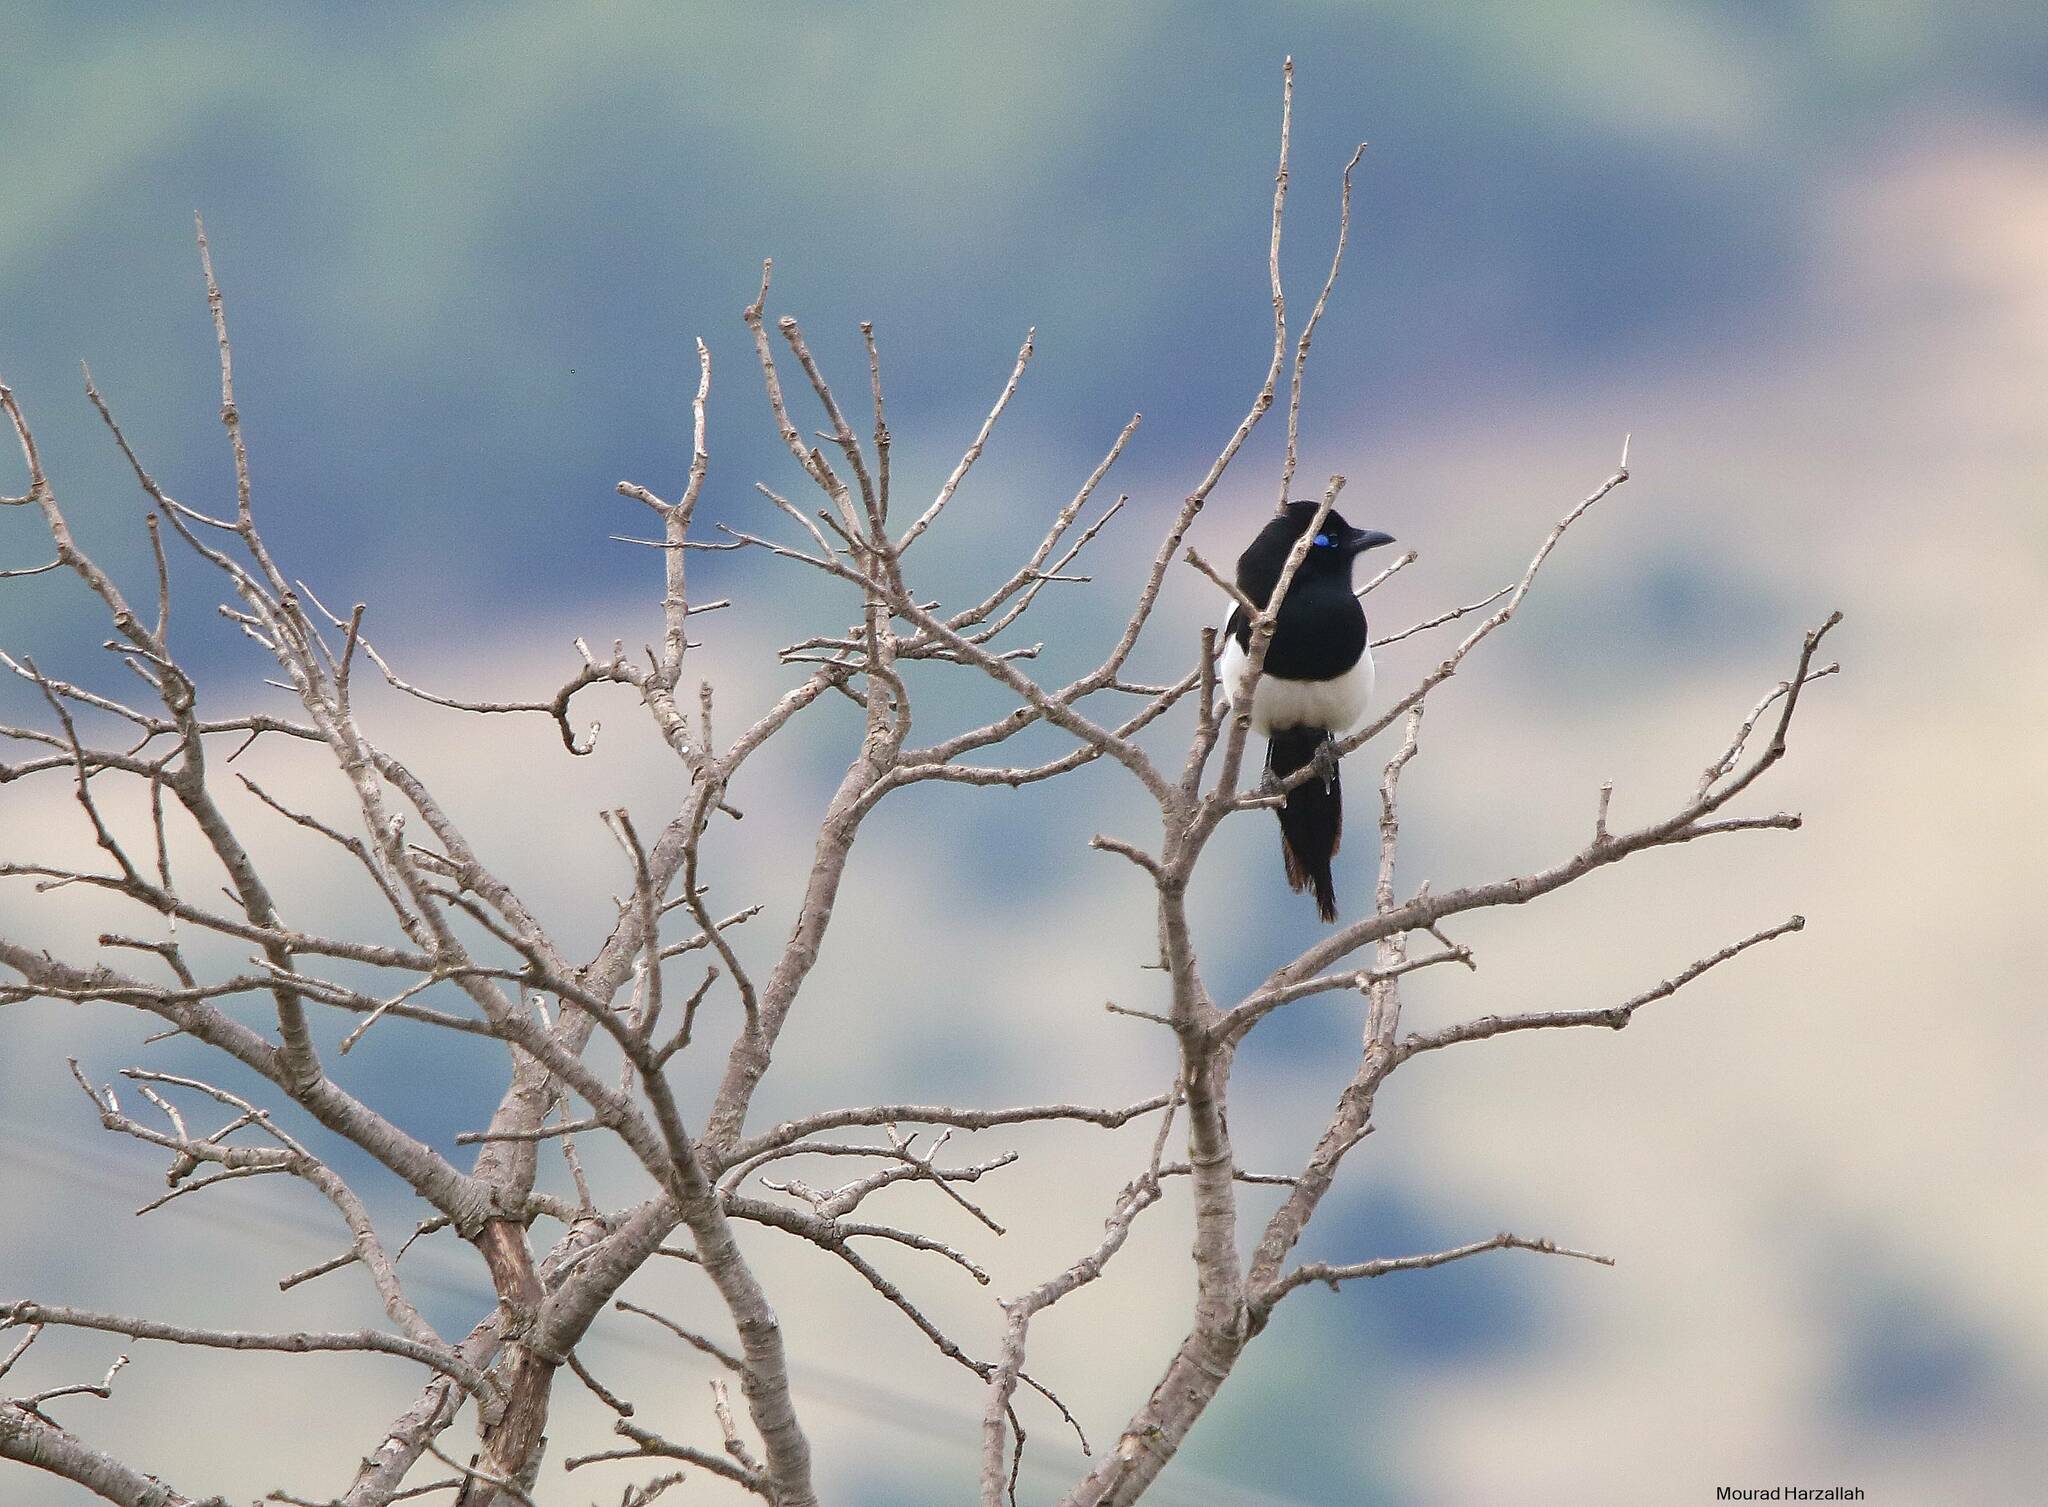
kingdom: Animalia
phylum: Chordata
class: Aves
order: Passeriformes
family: Corvidae
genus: Pica
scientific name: Pica mauritanica
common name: Maghreb magpie
